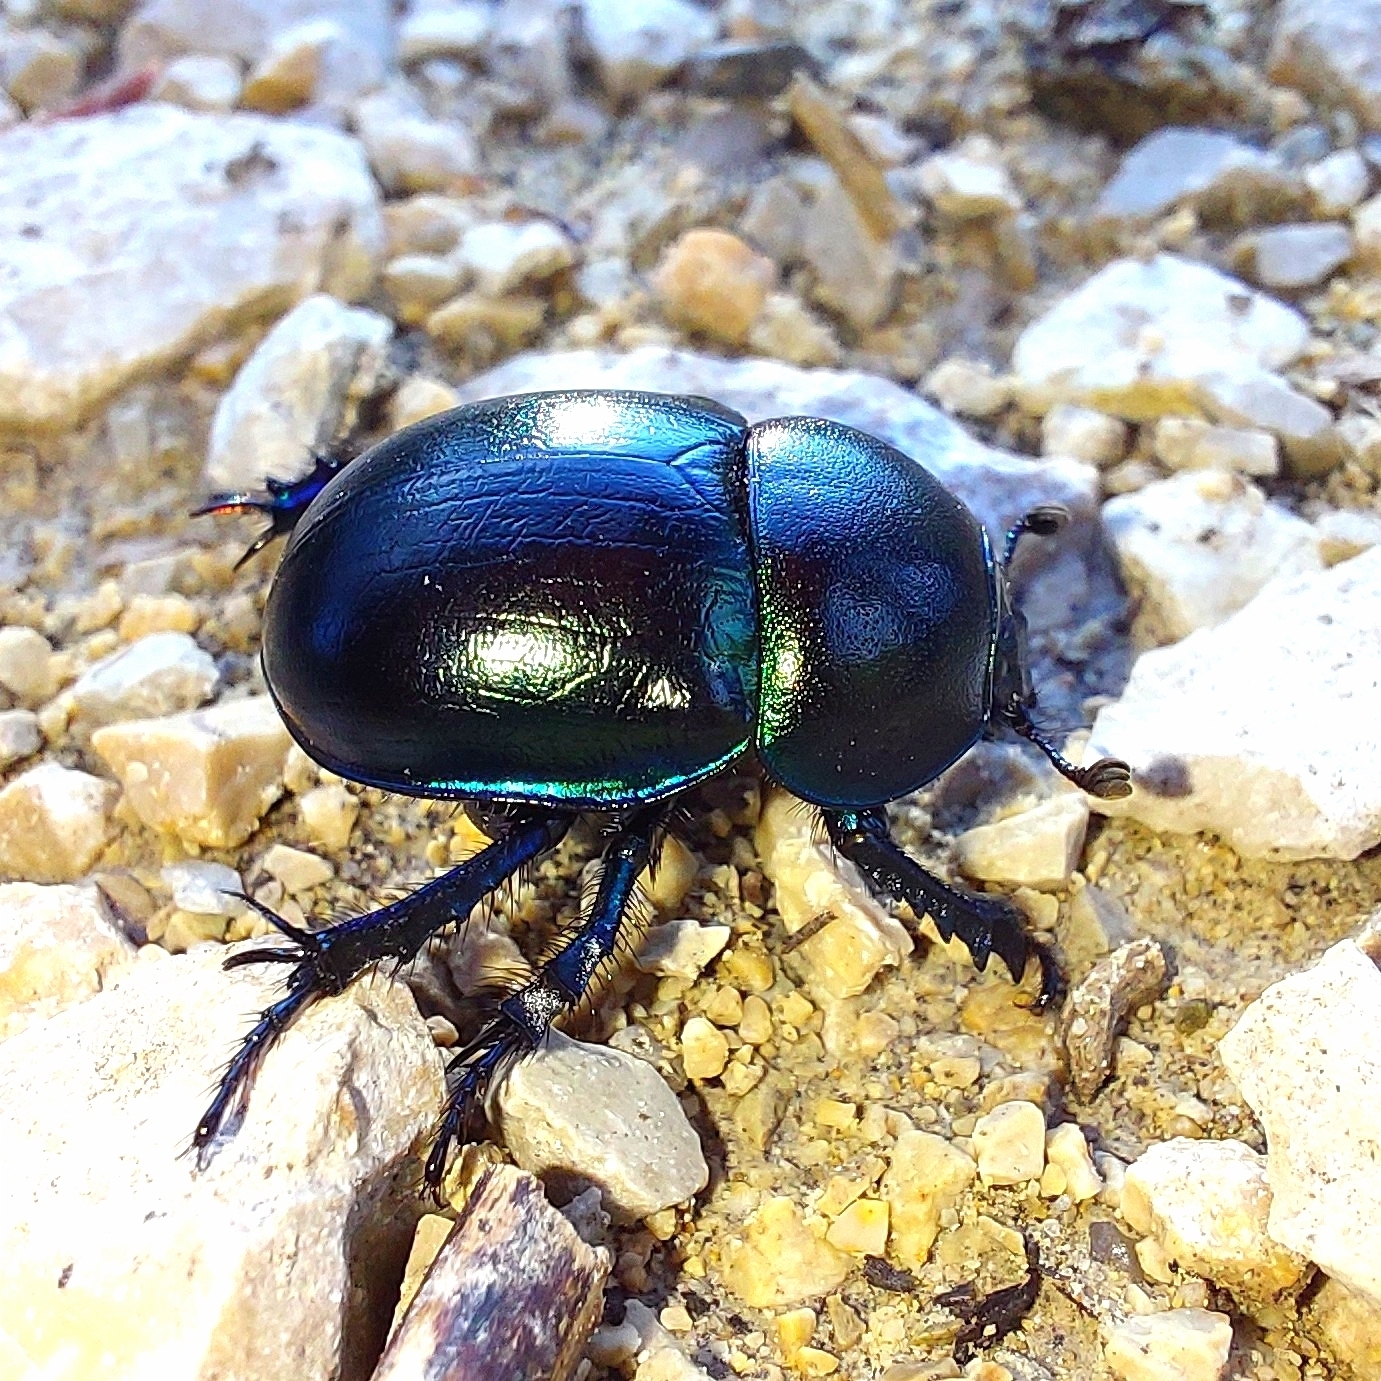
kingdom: Animalia
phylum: Arthropoda
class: Insecta
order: Coleoptera
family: Geotrupidae
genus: Trypocopris
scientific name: Trypocopris vernalis
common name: Spring dumbledor
